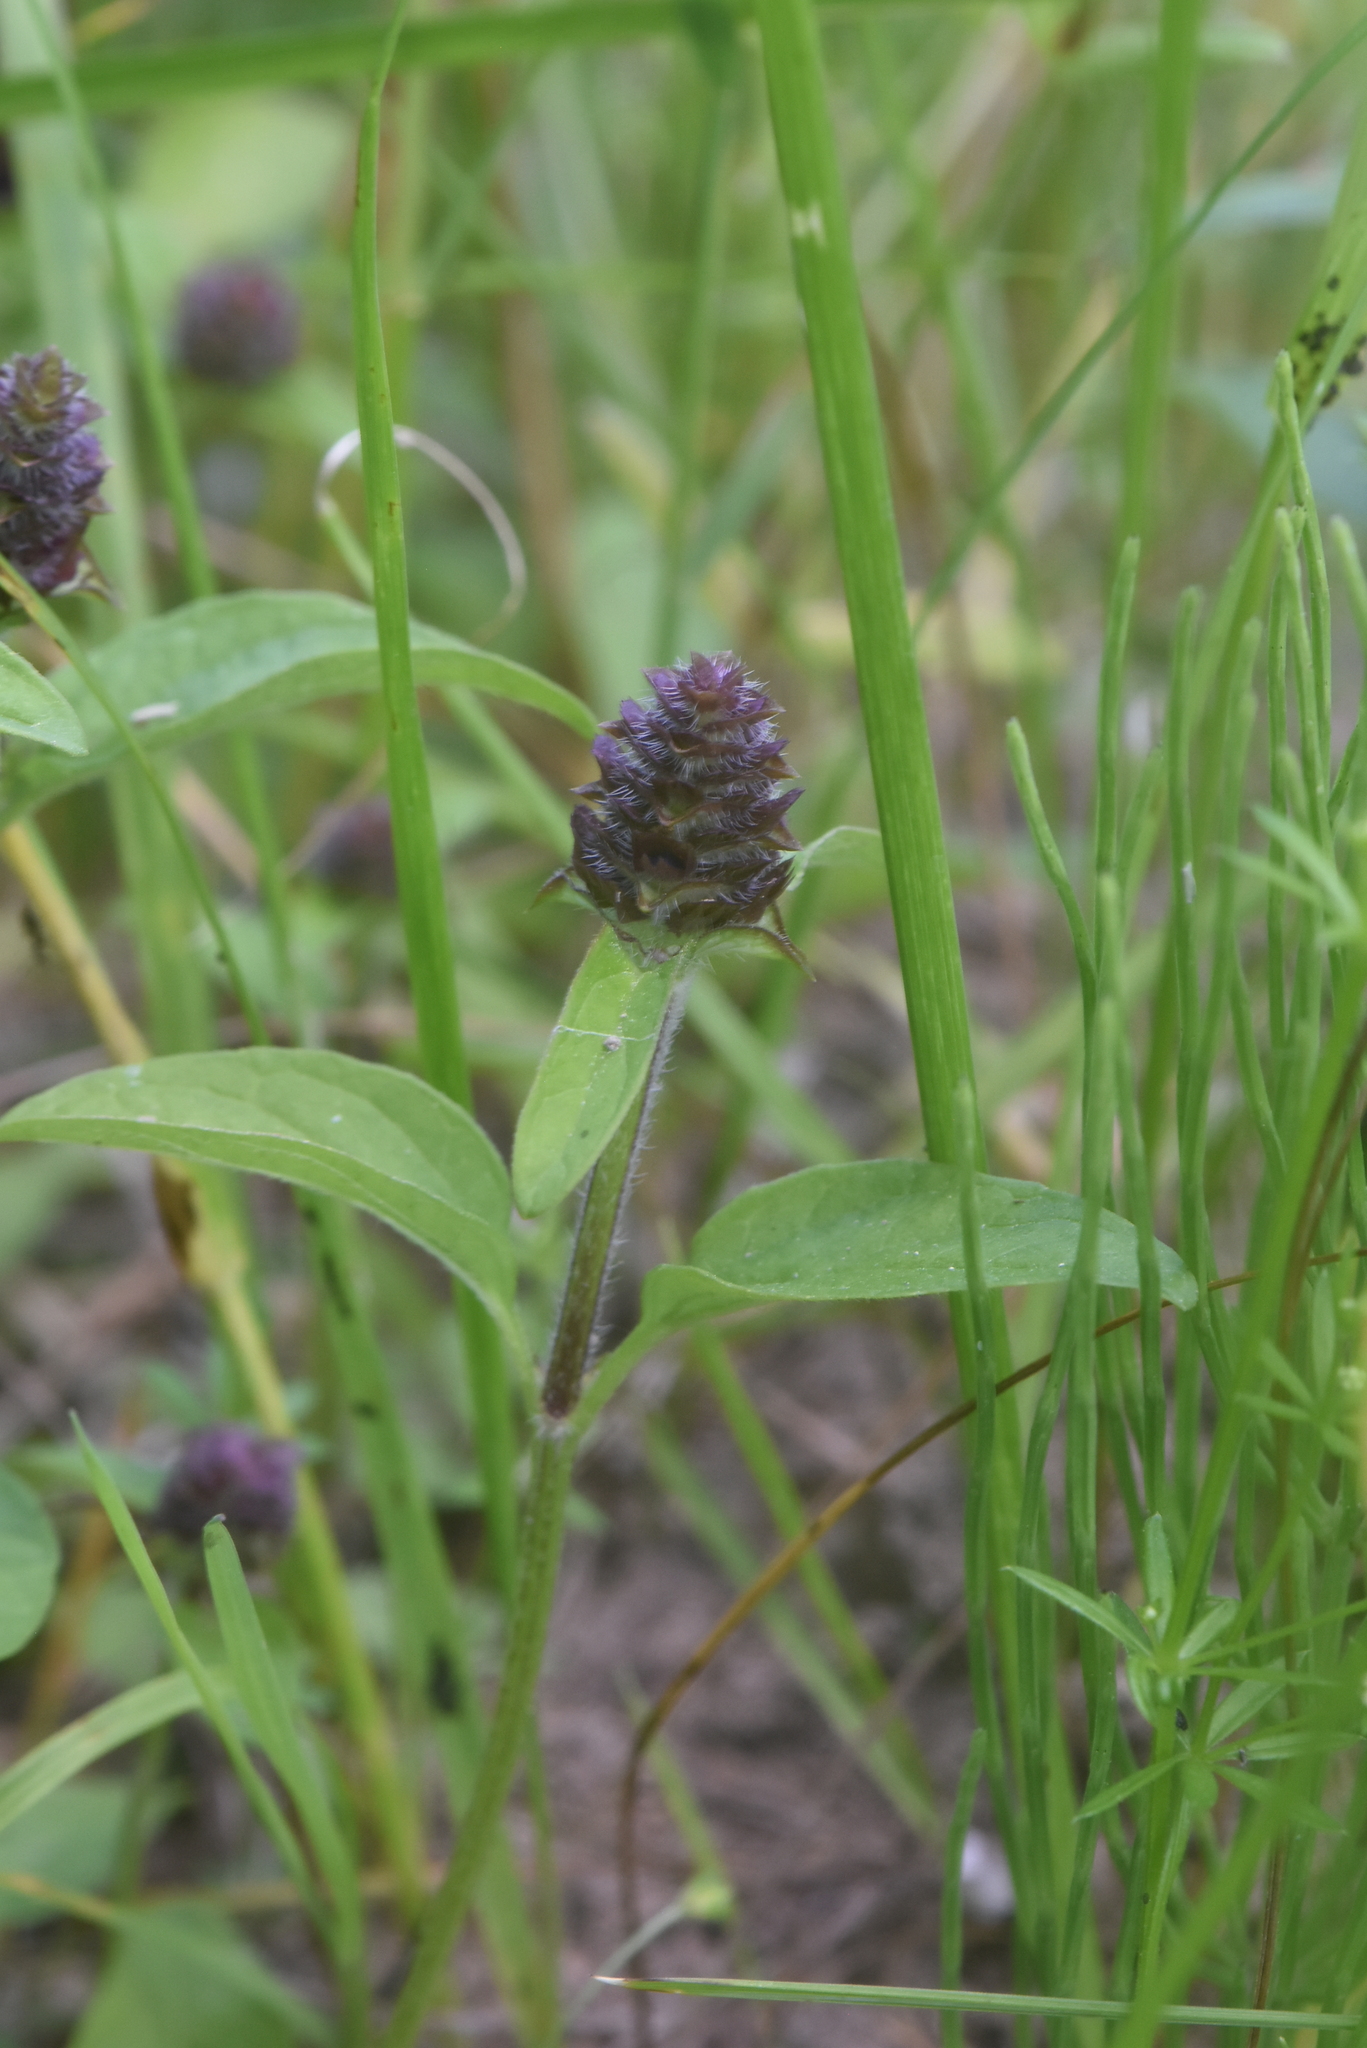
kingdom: Plantae
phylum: Tracheophyta
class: Magnoliopsida
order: Lamiales
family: Lamiaceae
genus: Prunella
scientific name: Prunella vulgaris
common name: Heal-all
